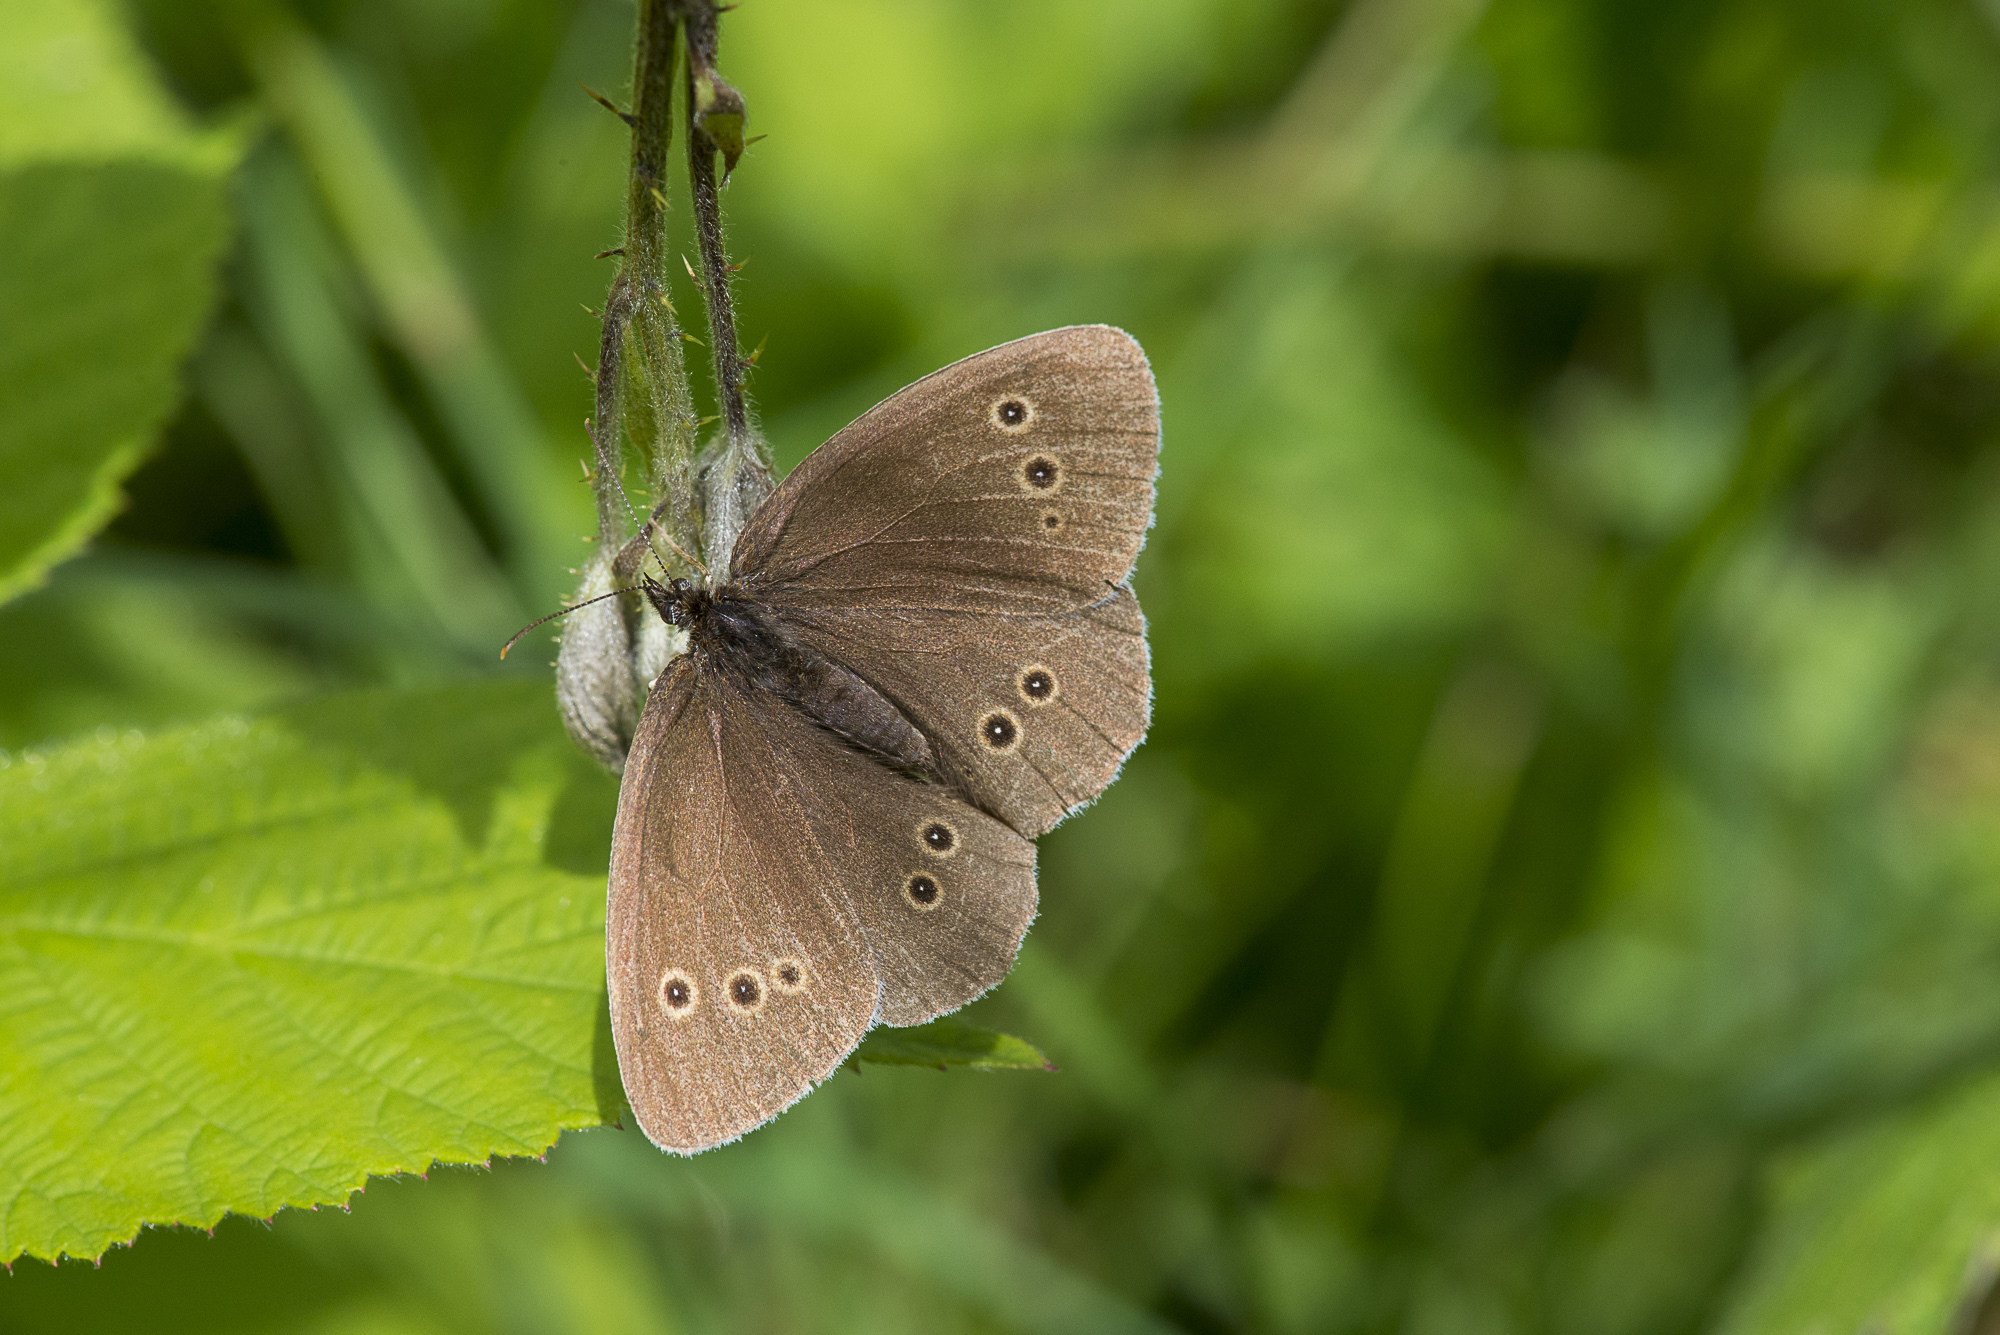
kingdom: Animalia
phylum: Arthropoda
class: Insecta
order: Lepidoptera
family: Nymphalidae
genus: Aphantopus
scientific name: Aphantopus hyperantus
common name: Ringlet
